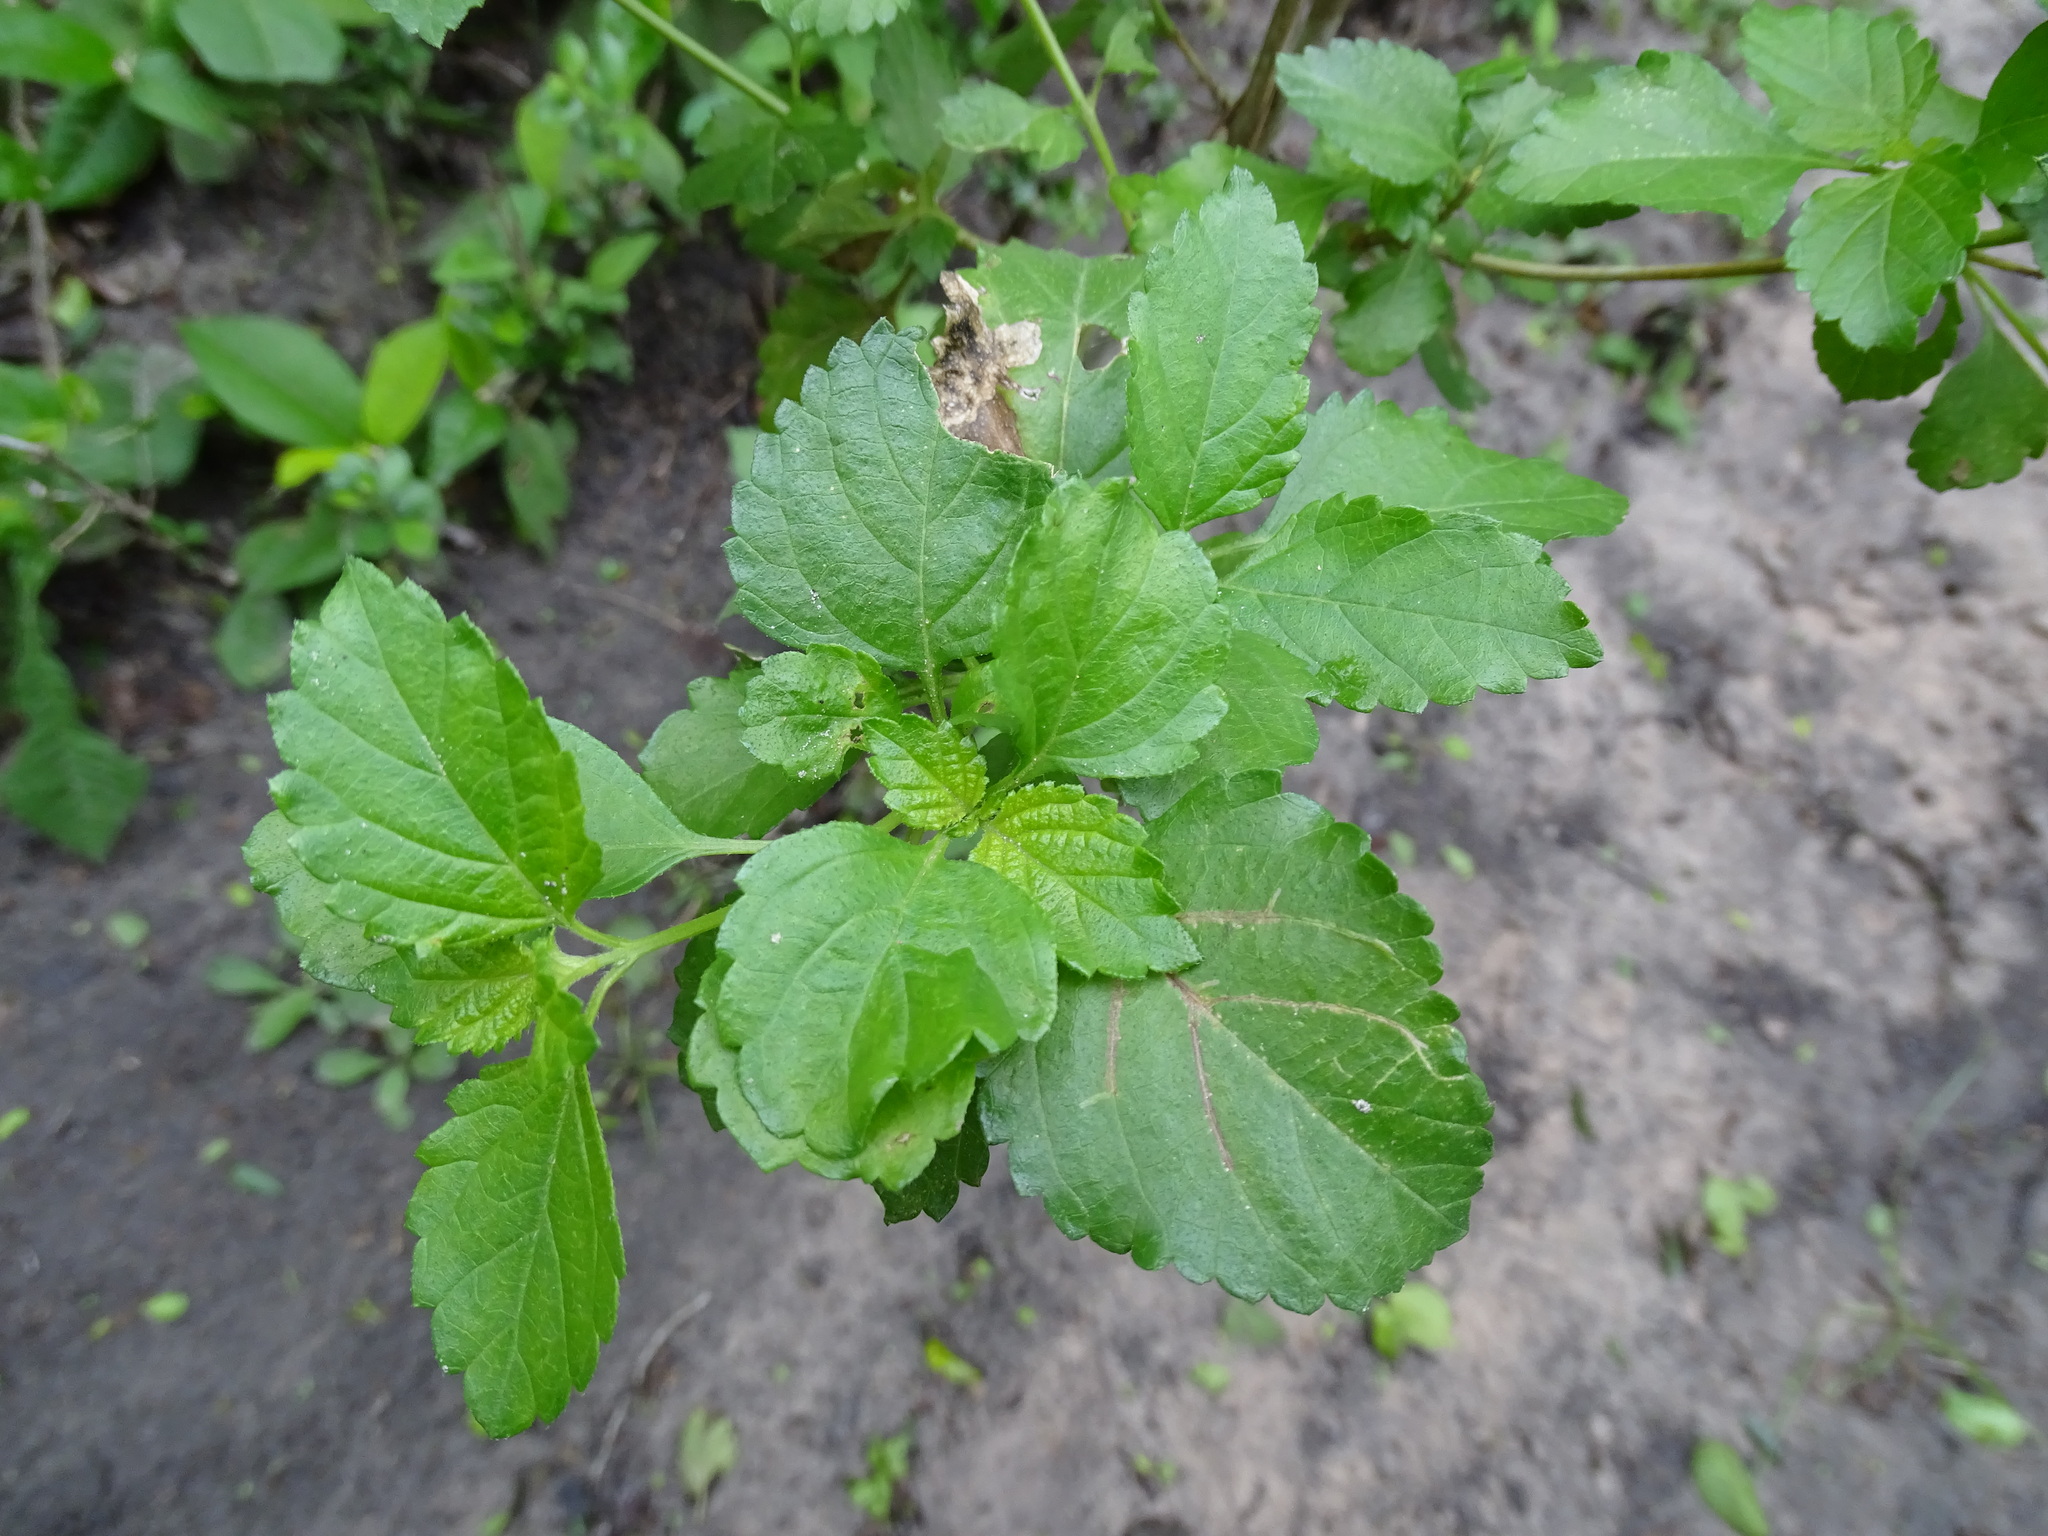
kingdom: Plantae
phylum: Tracheophyta
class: Magnoliopsida
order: Lamiales
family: Verbenaceae
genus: Lantana
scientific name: Lantana urticoides
